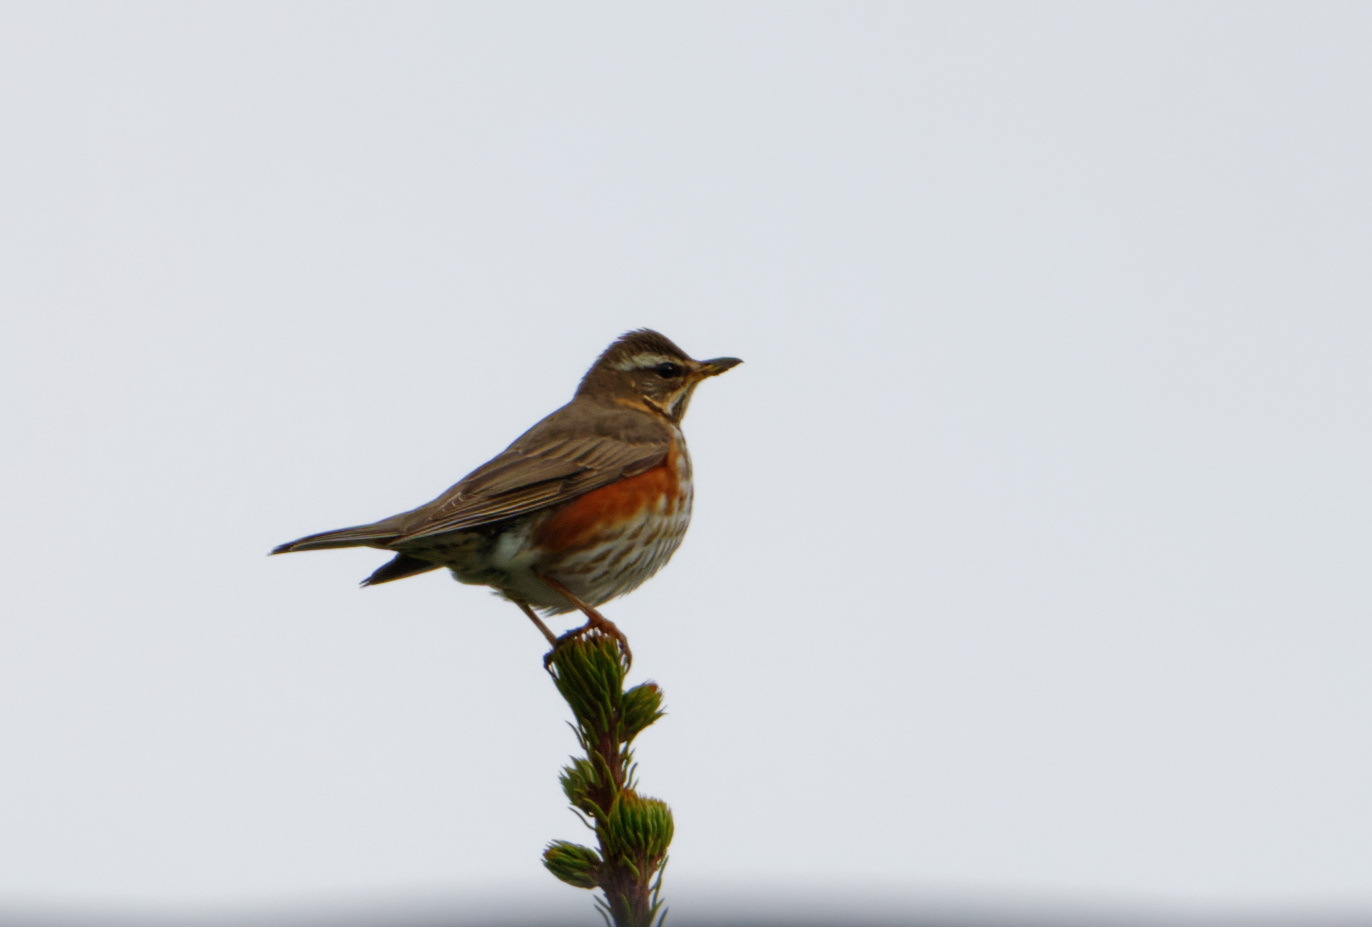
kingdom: Animalia
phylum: Chordata
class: Aves
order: Passeriformes
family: Turdidae
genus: Turdus
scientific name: Turdus iliacus
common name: Redwing
